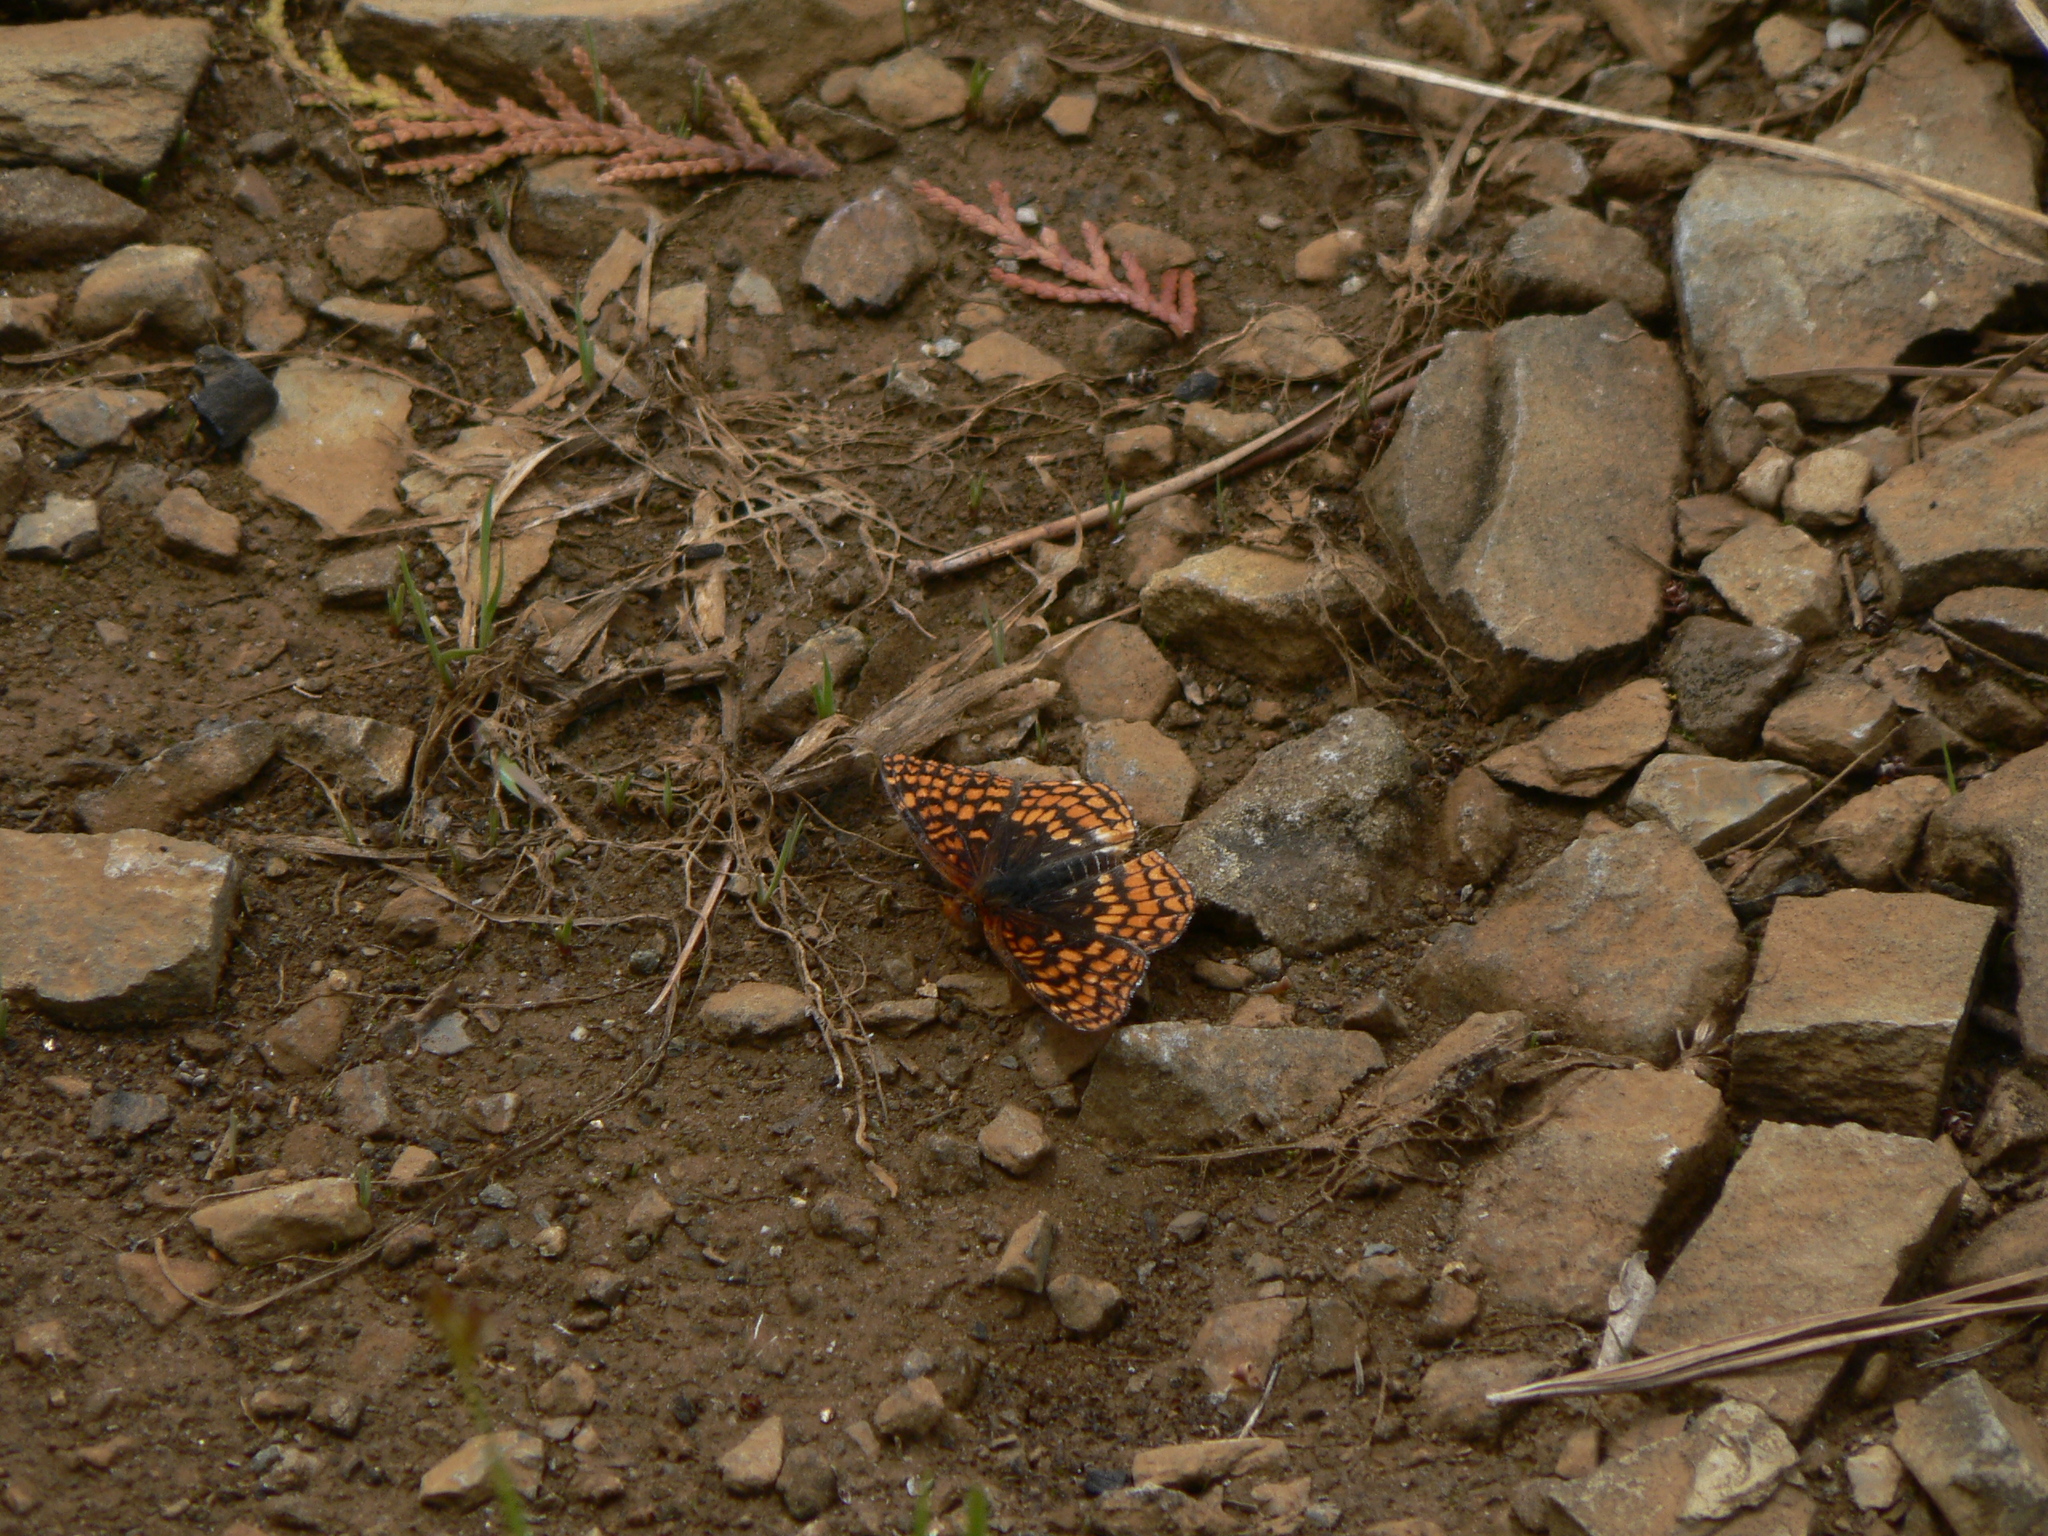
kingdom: Animalia
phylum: Arthropoda
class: Insecta
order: Lepidoptera
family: Nymphalidae
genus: Chlosyne
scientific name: Chlosyne palla
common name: Northern checkerspot
